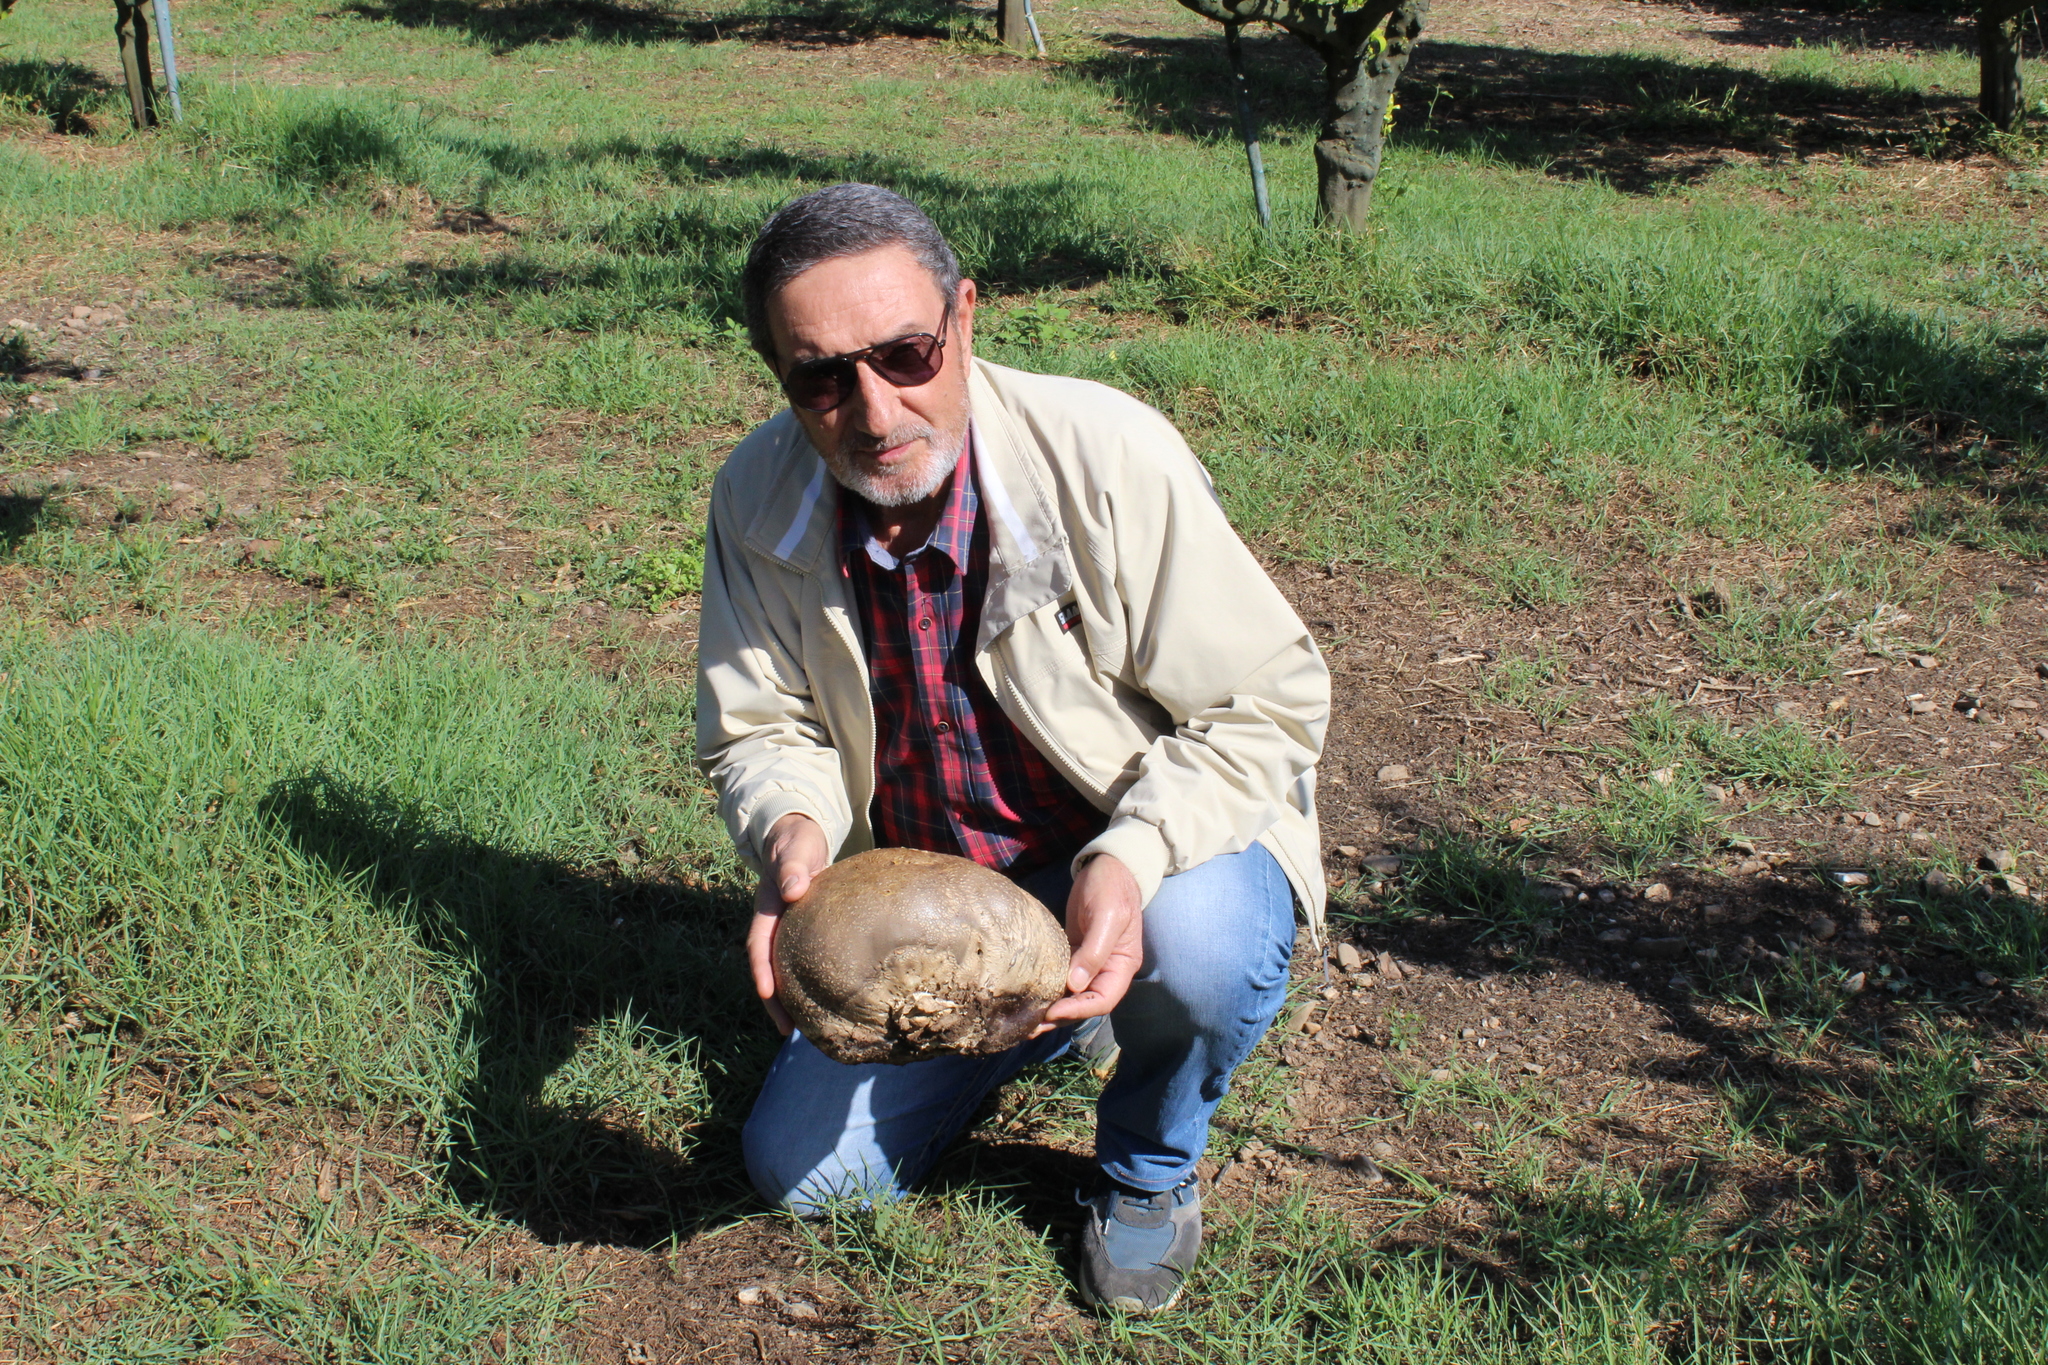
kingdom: Fungi
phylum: Basidiomycota
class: Agaricomycetes
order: Agaricales
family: Lycoperdaceae
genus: Langermannia
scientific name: Langermannia pachyderma
